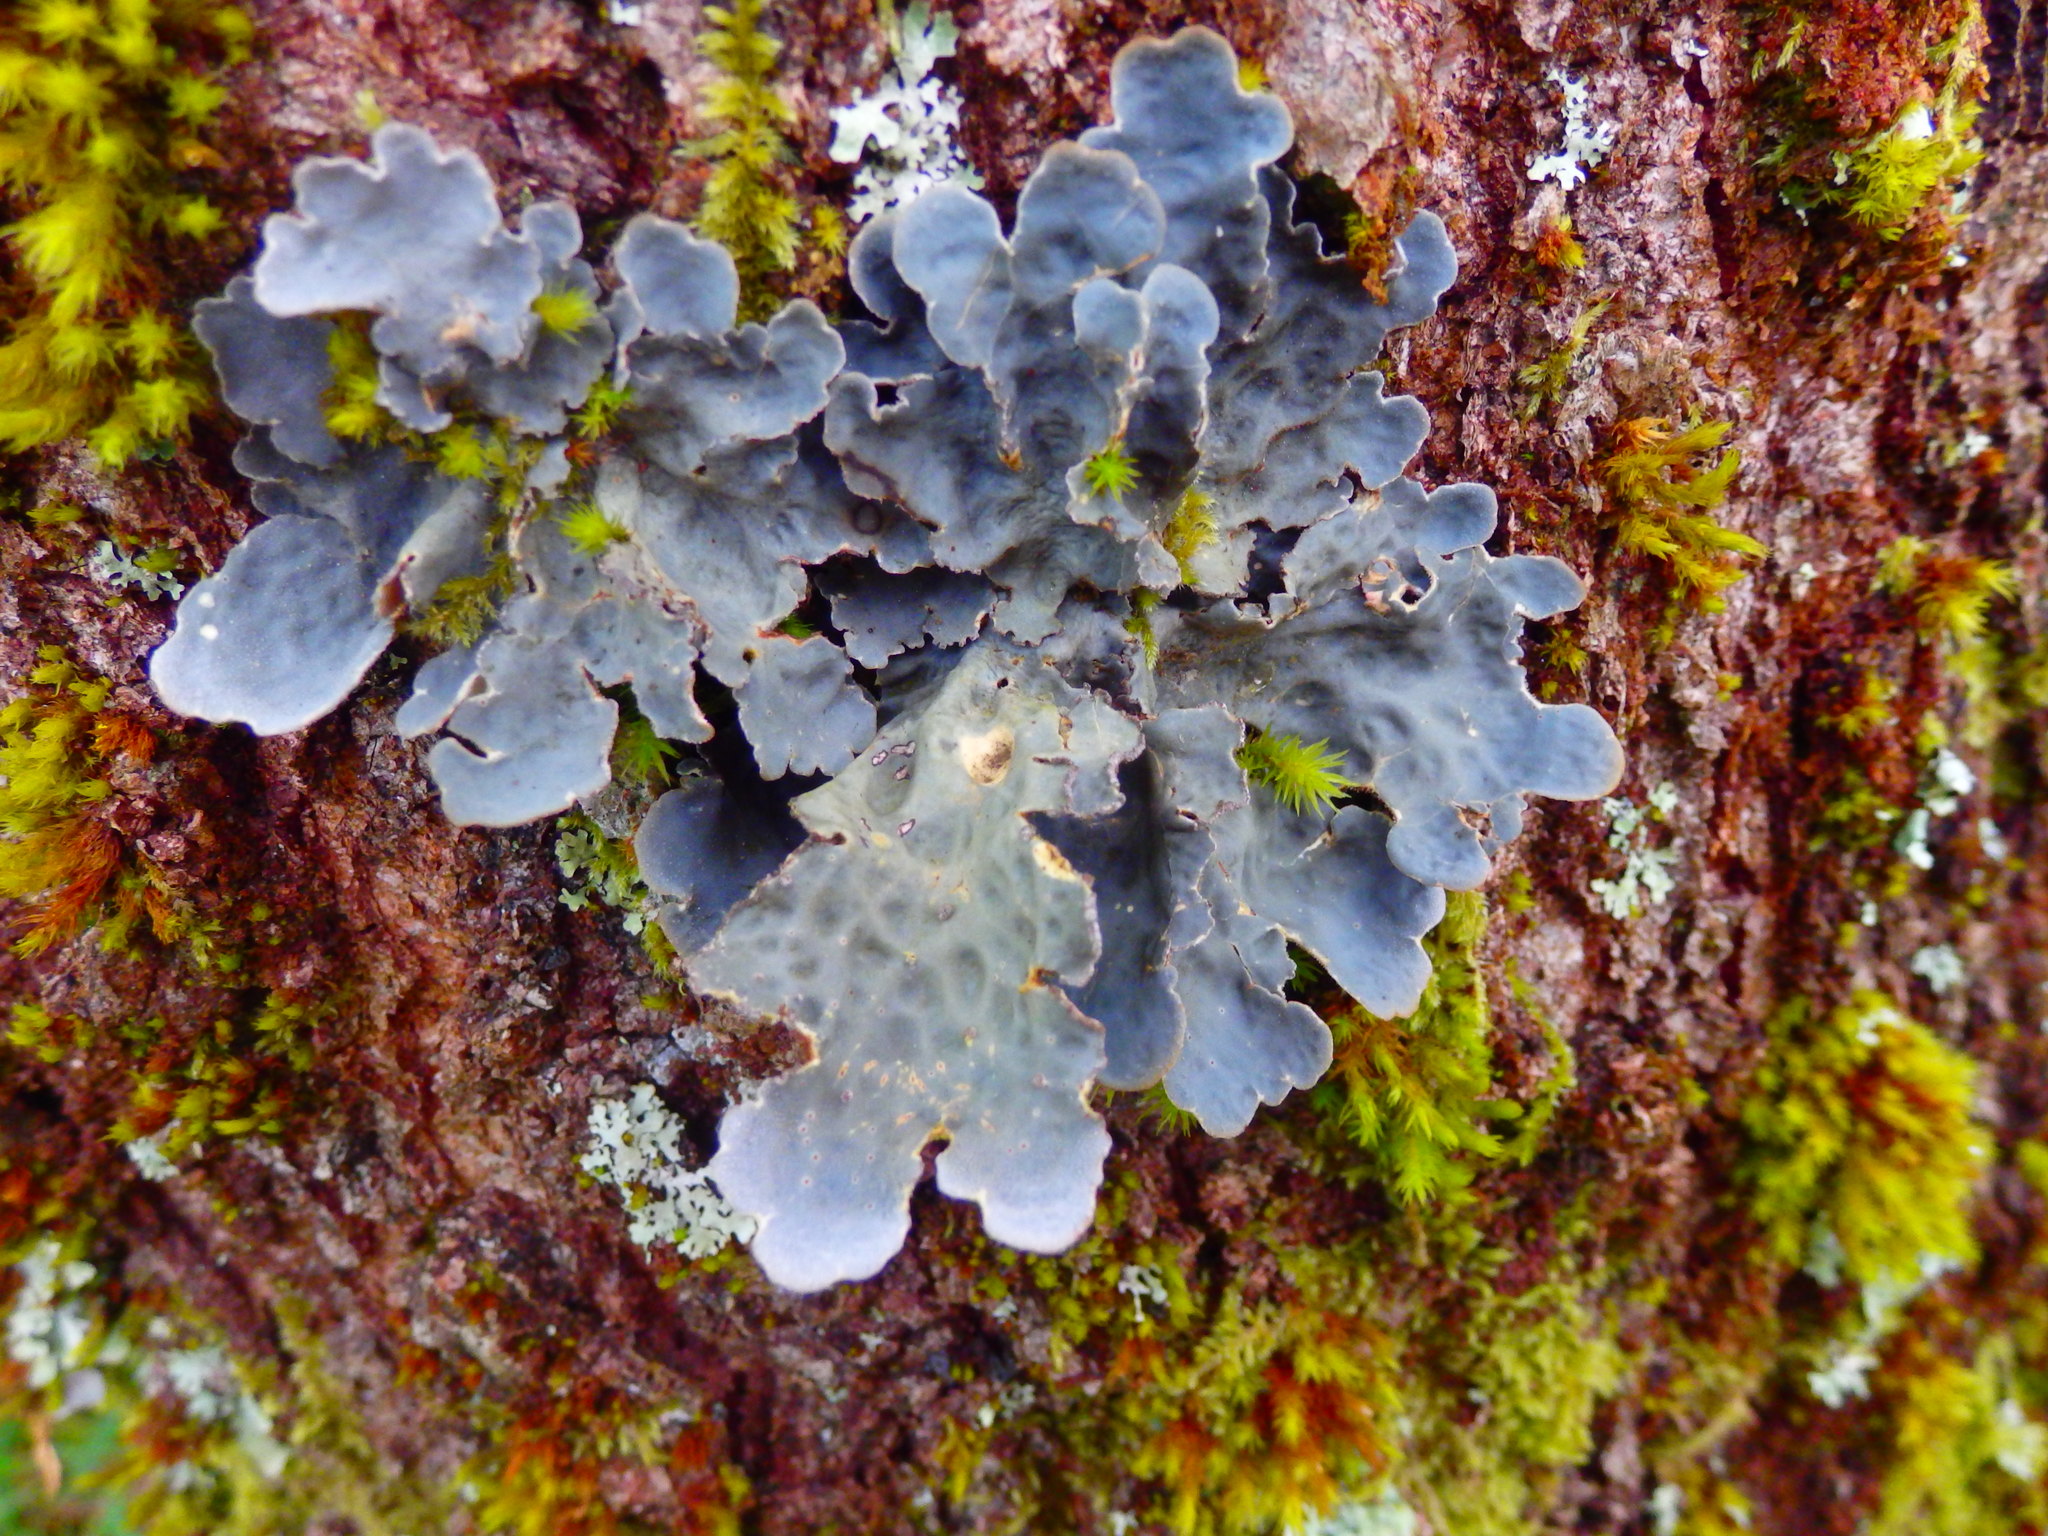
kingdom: Fungi
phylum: Ascomycota
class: Lecanoromycetes
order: Peltigerales
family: Lobariaceae
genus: Lobarina
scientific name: Lobarina scrobiculata
